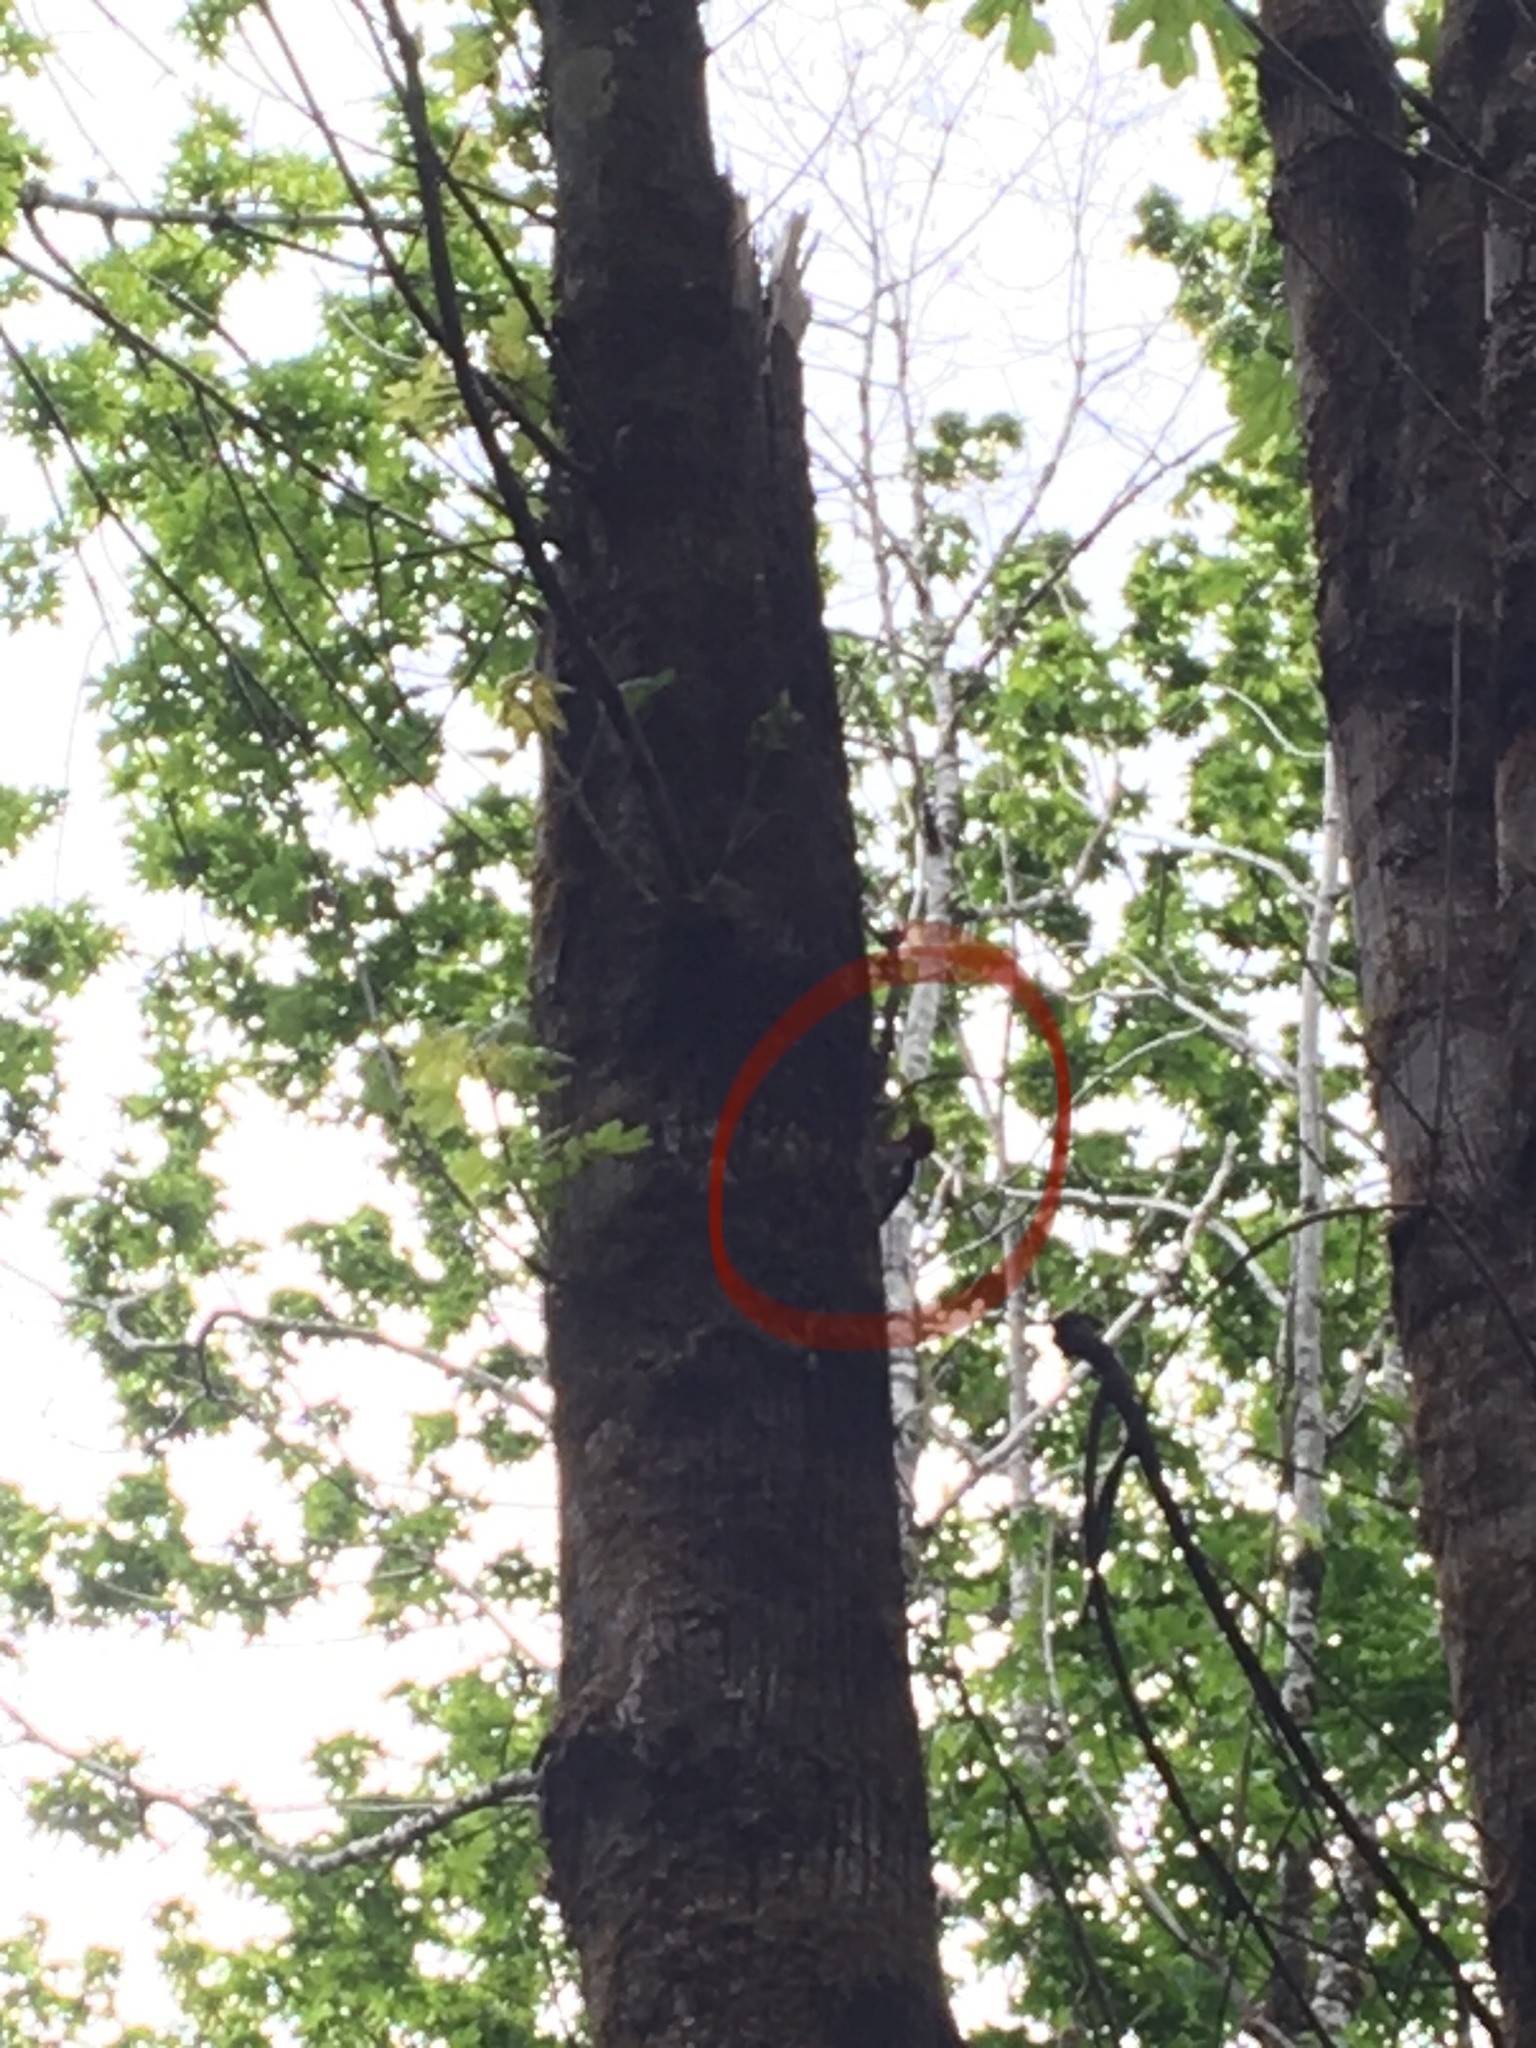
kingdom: Animalia
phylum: Chordata
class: Aves
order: Piciformes
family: Picidae
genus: Sphyrapicus
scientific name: Sphyrapicus ruber
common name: Red-breasted sapsucker
